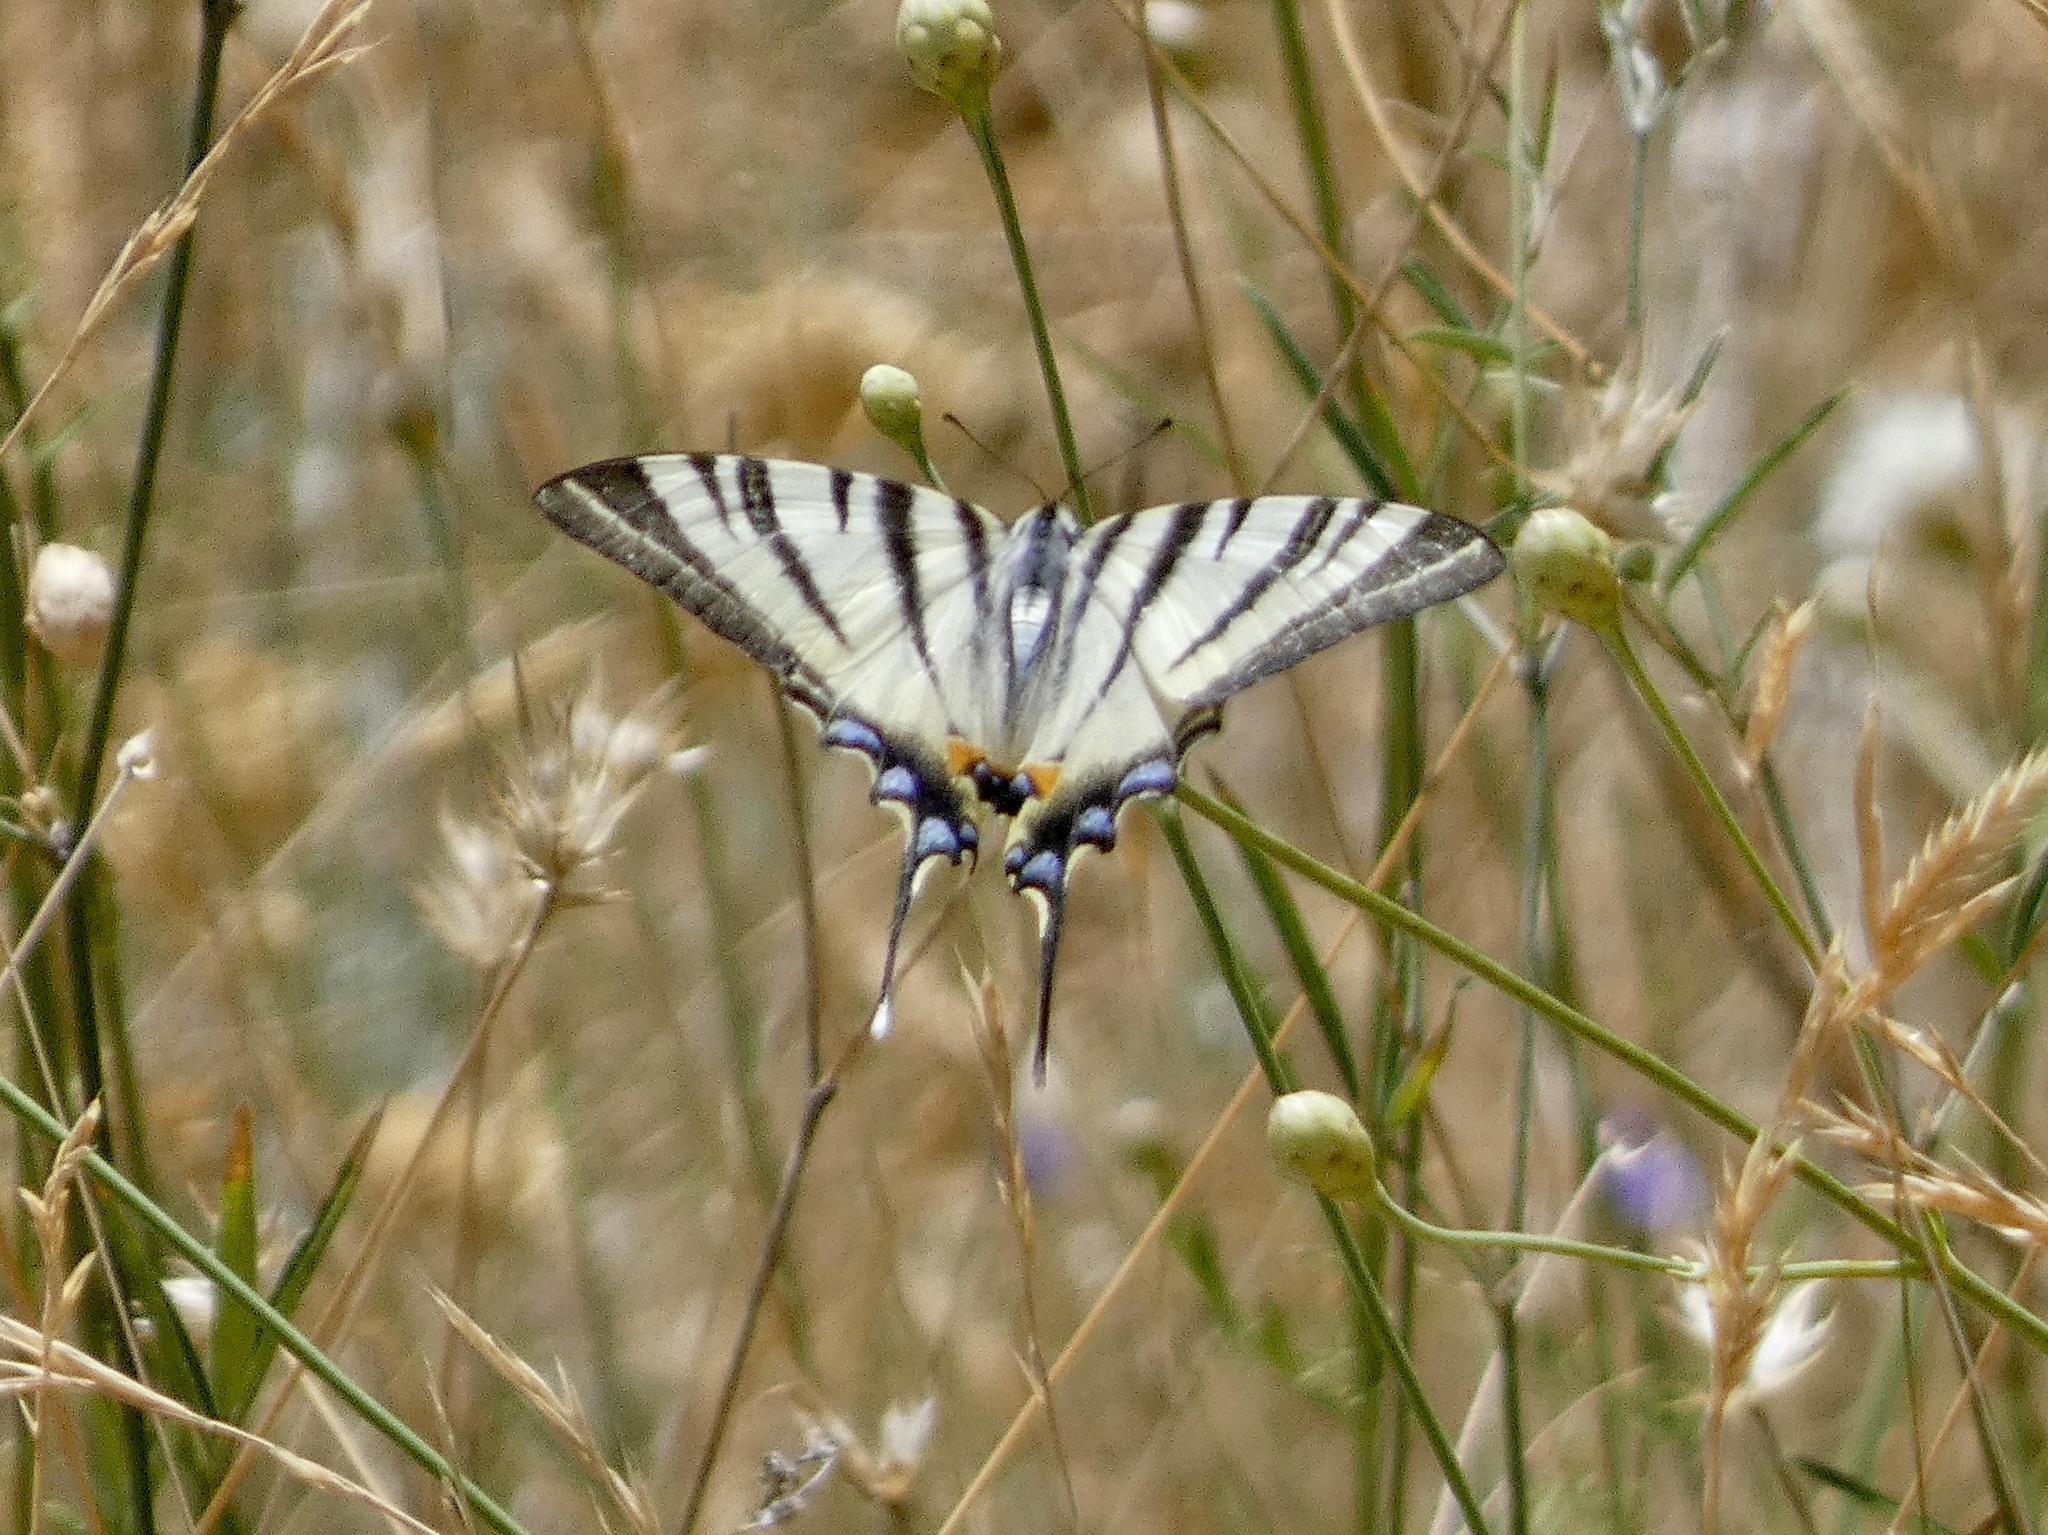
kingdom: Animalia
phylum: Arthropoda
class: Insecta
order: Lepidoptera
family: Papilionidae
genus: Iphiclides
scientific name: Iphiclides podalirius
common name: Scarce swallowtail
